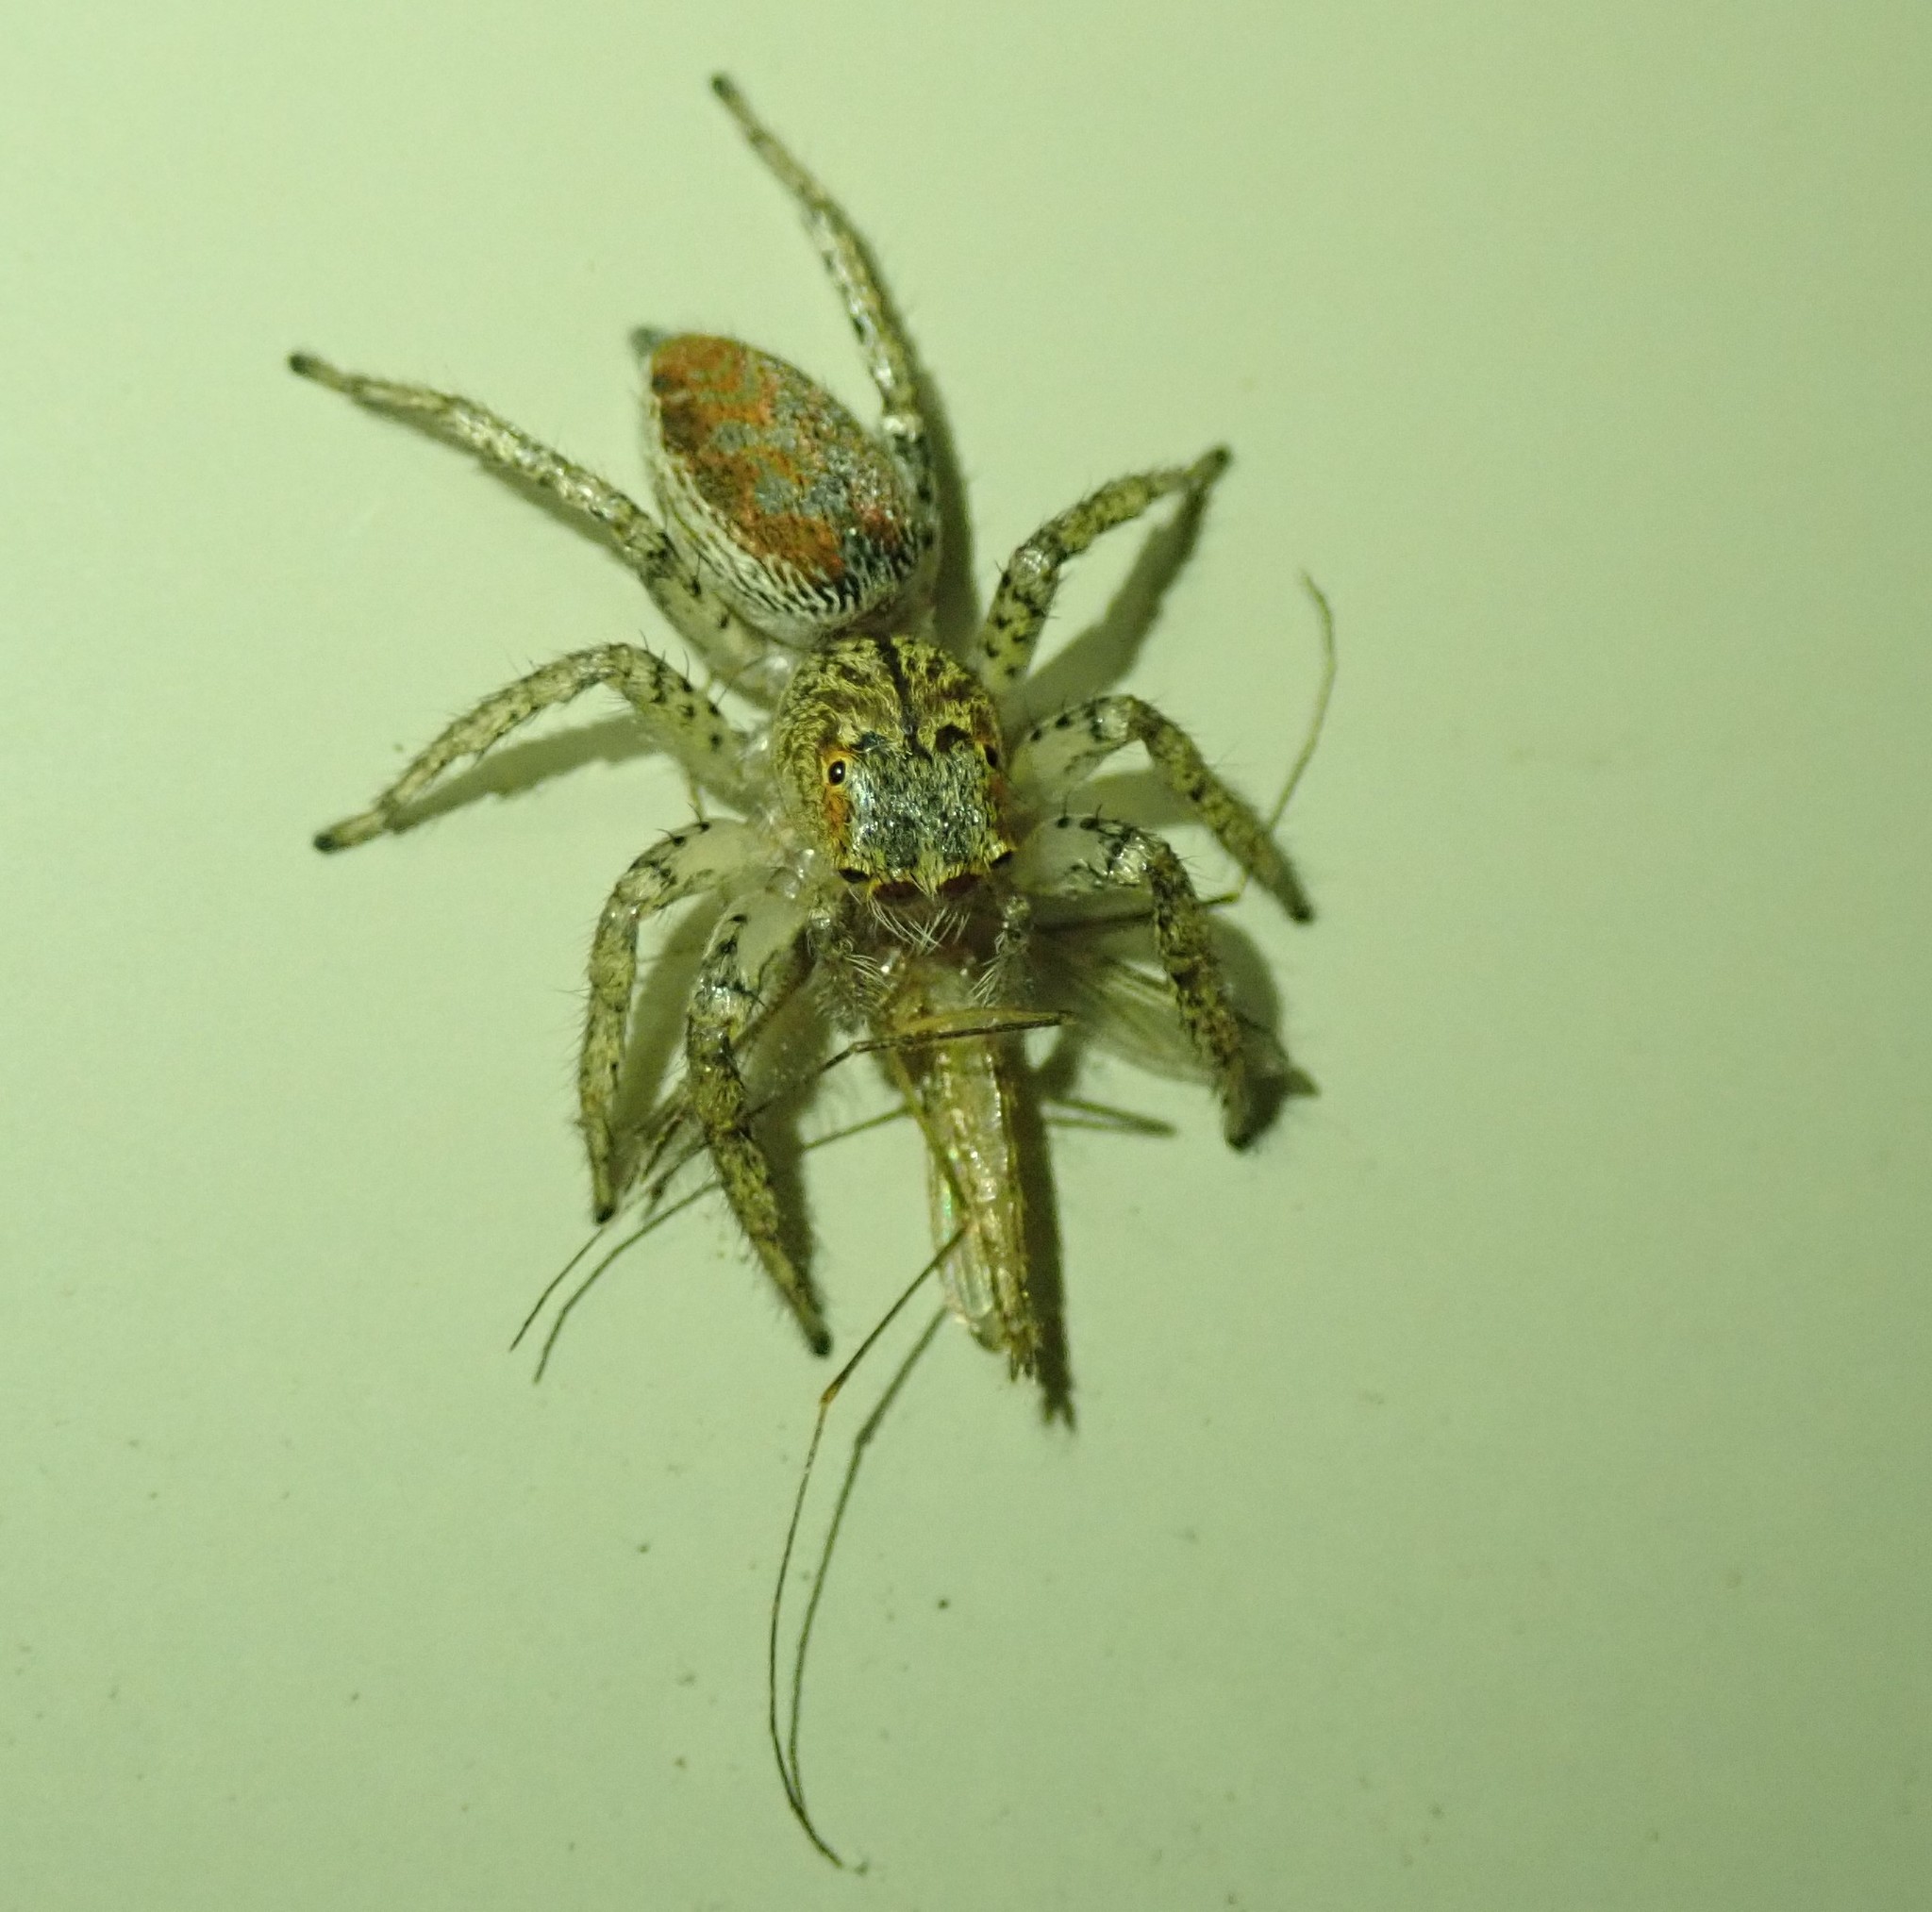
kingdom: Animalia
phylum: Arthropoda
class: Arachnida
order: Araneae
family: Salticidae
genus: Maevia
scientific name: Maevia inclemens
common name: Dimorphic jumper
